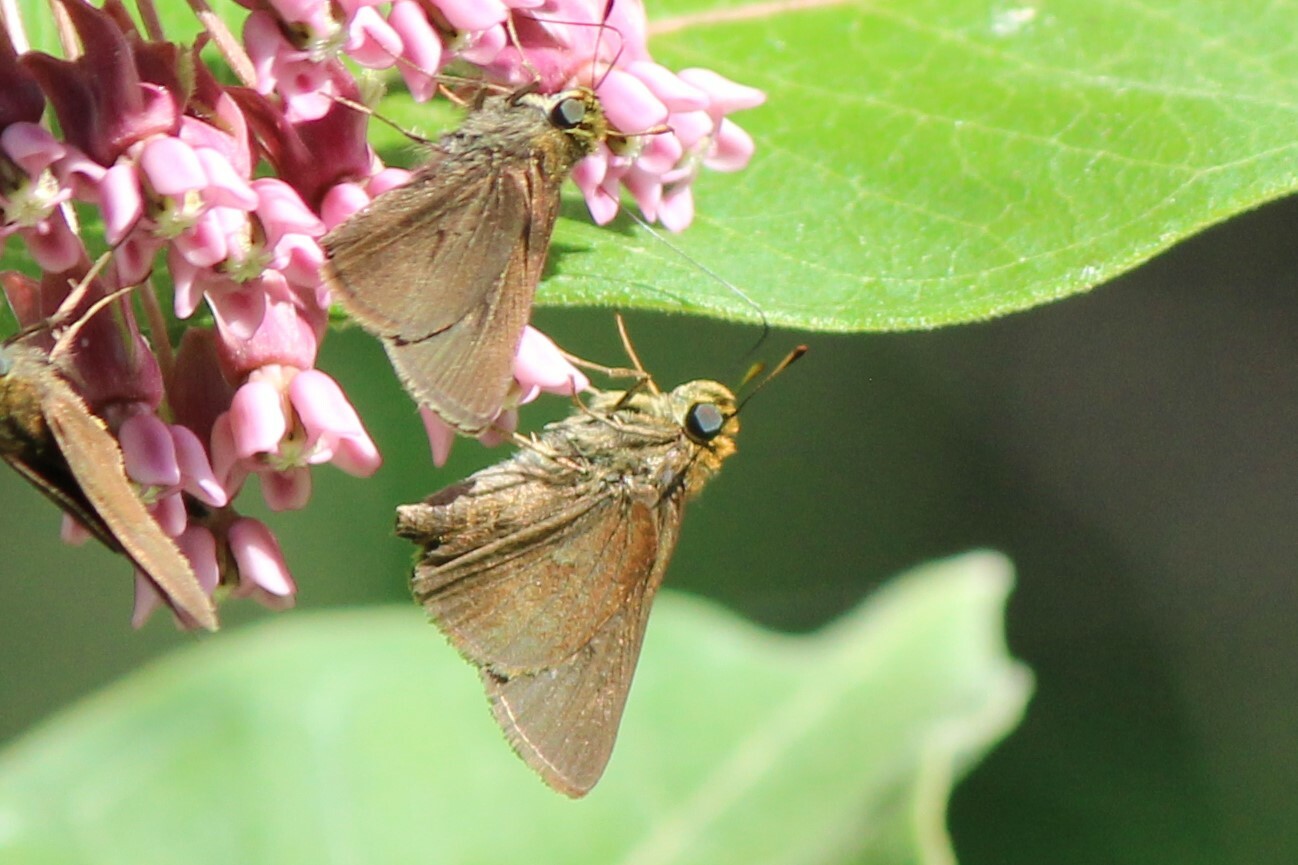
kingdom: Animalia
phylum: Arthropoda
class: Insecta
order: Lepidoptera
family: Hesperiidae
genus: Euphyes
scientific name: Euphyes vestris
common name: Dun skipper
